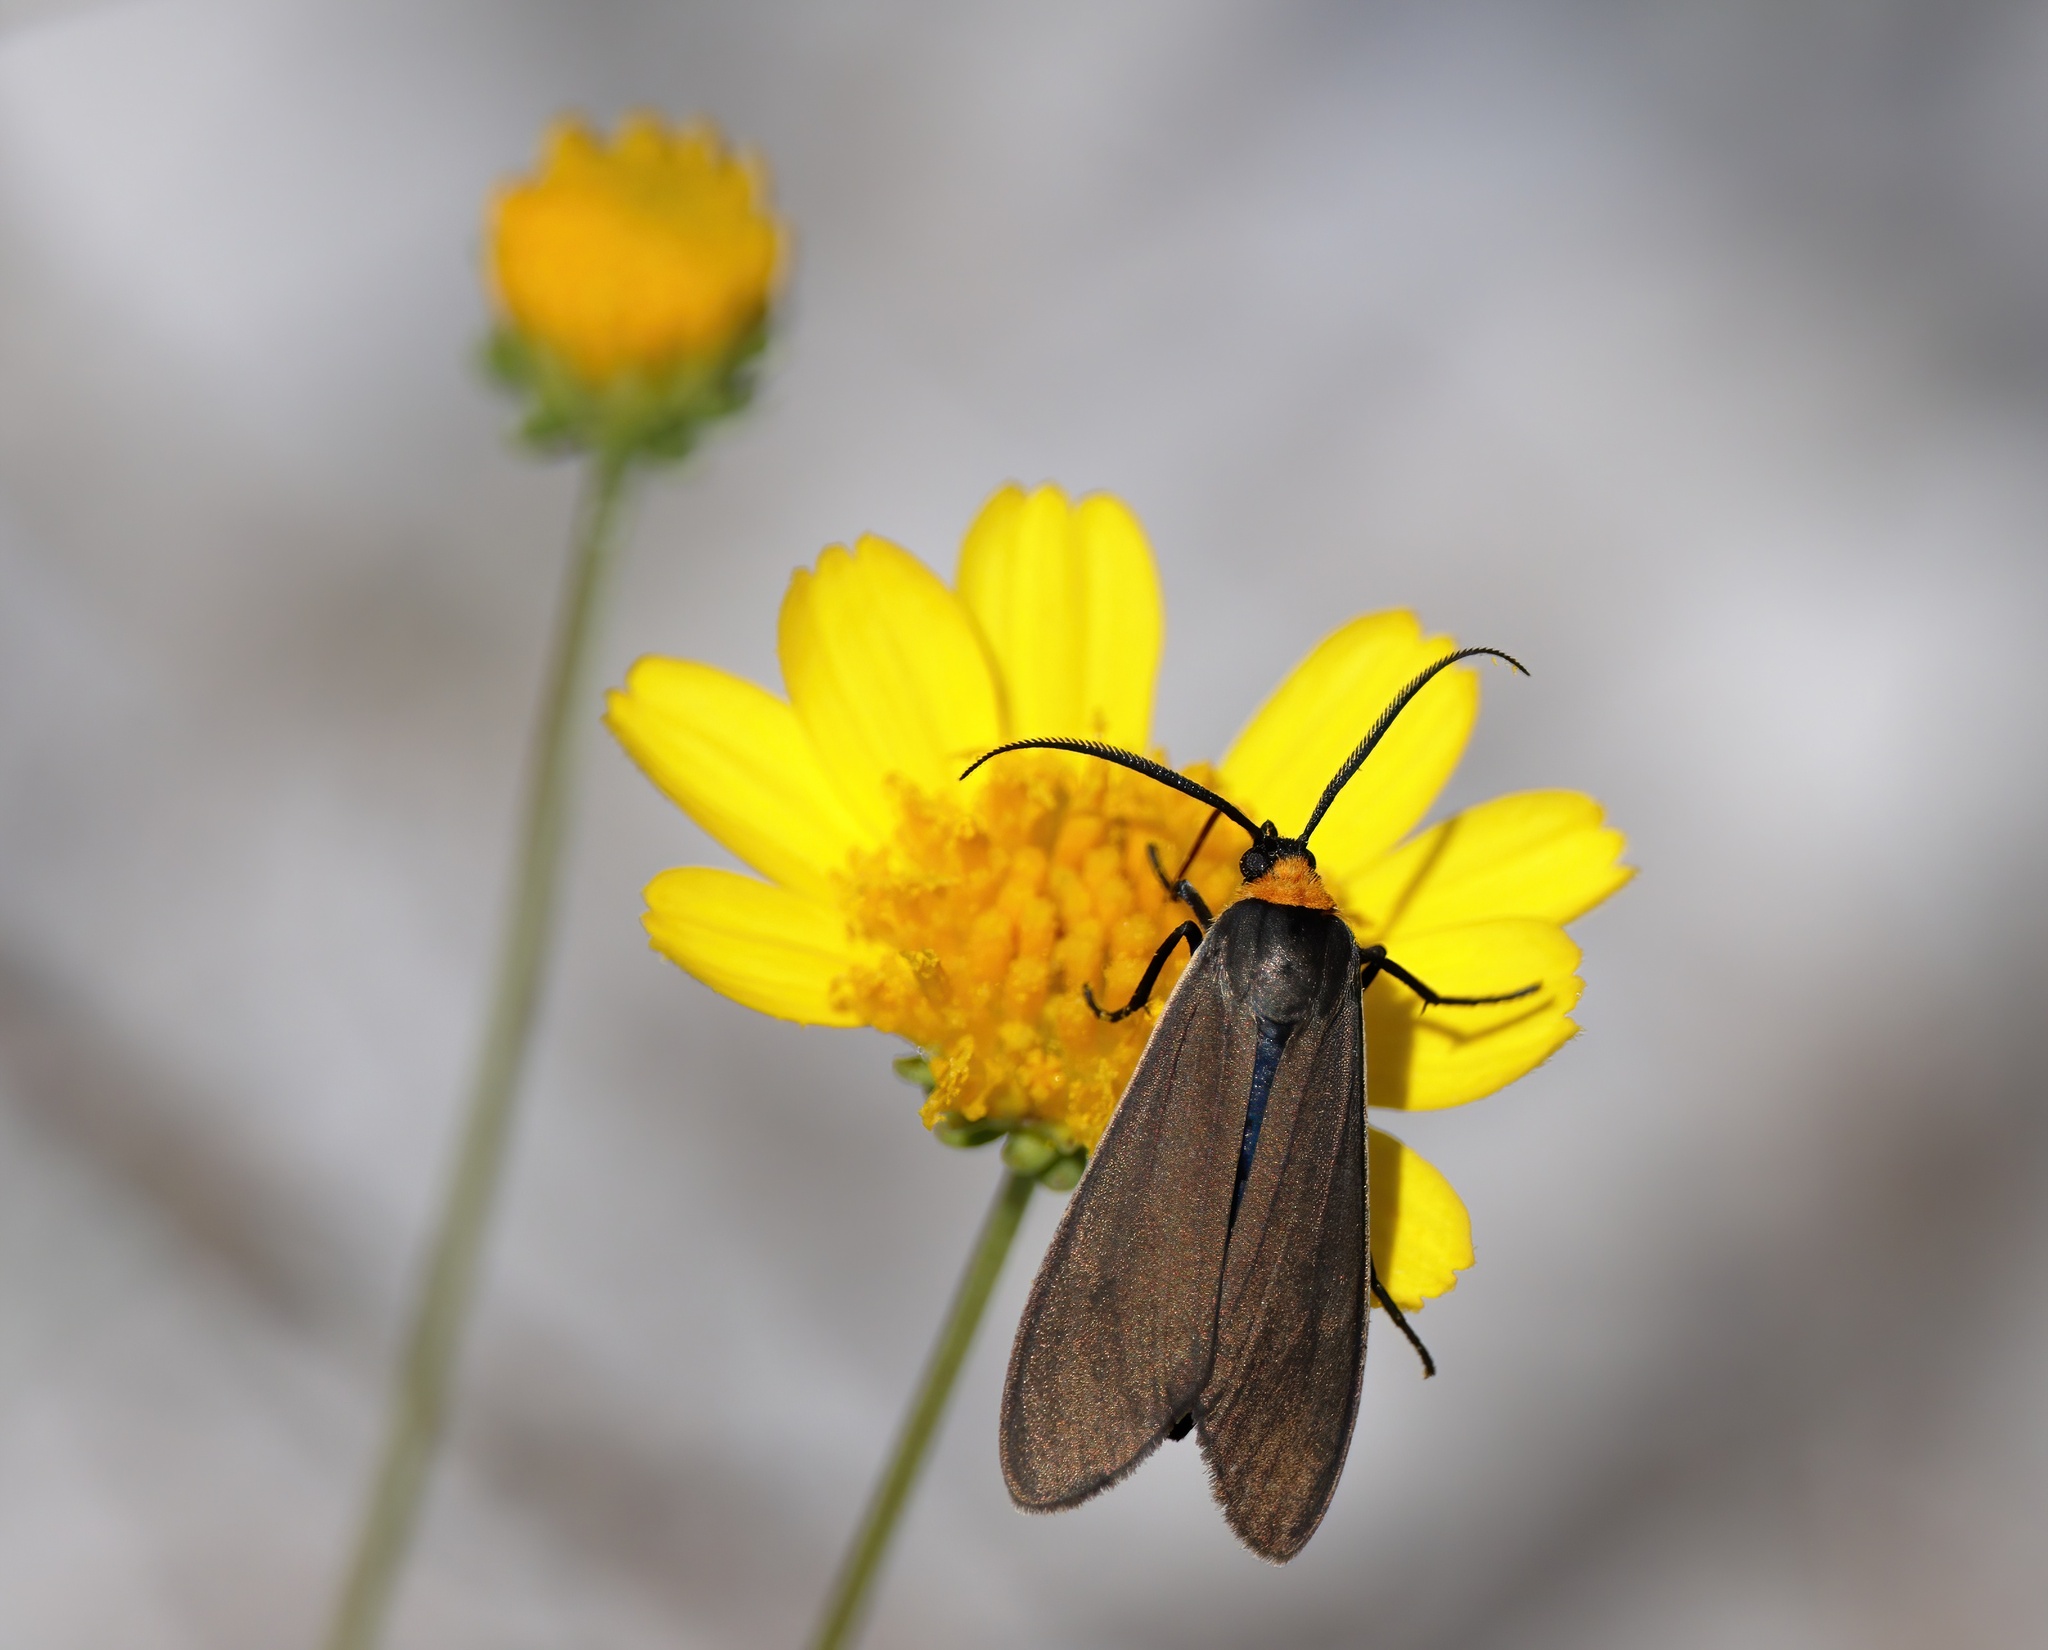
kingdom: Animalia
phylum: Arthropoda
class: Insecta
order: Lepidoptera
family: Erebidae
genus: Cisseps
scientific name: Cisseps fulvicollis
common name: Yellow-collared scape moth
